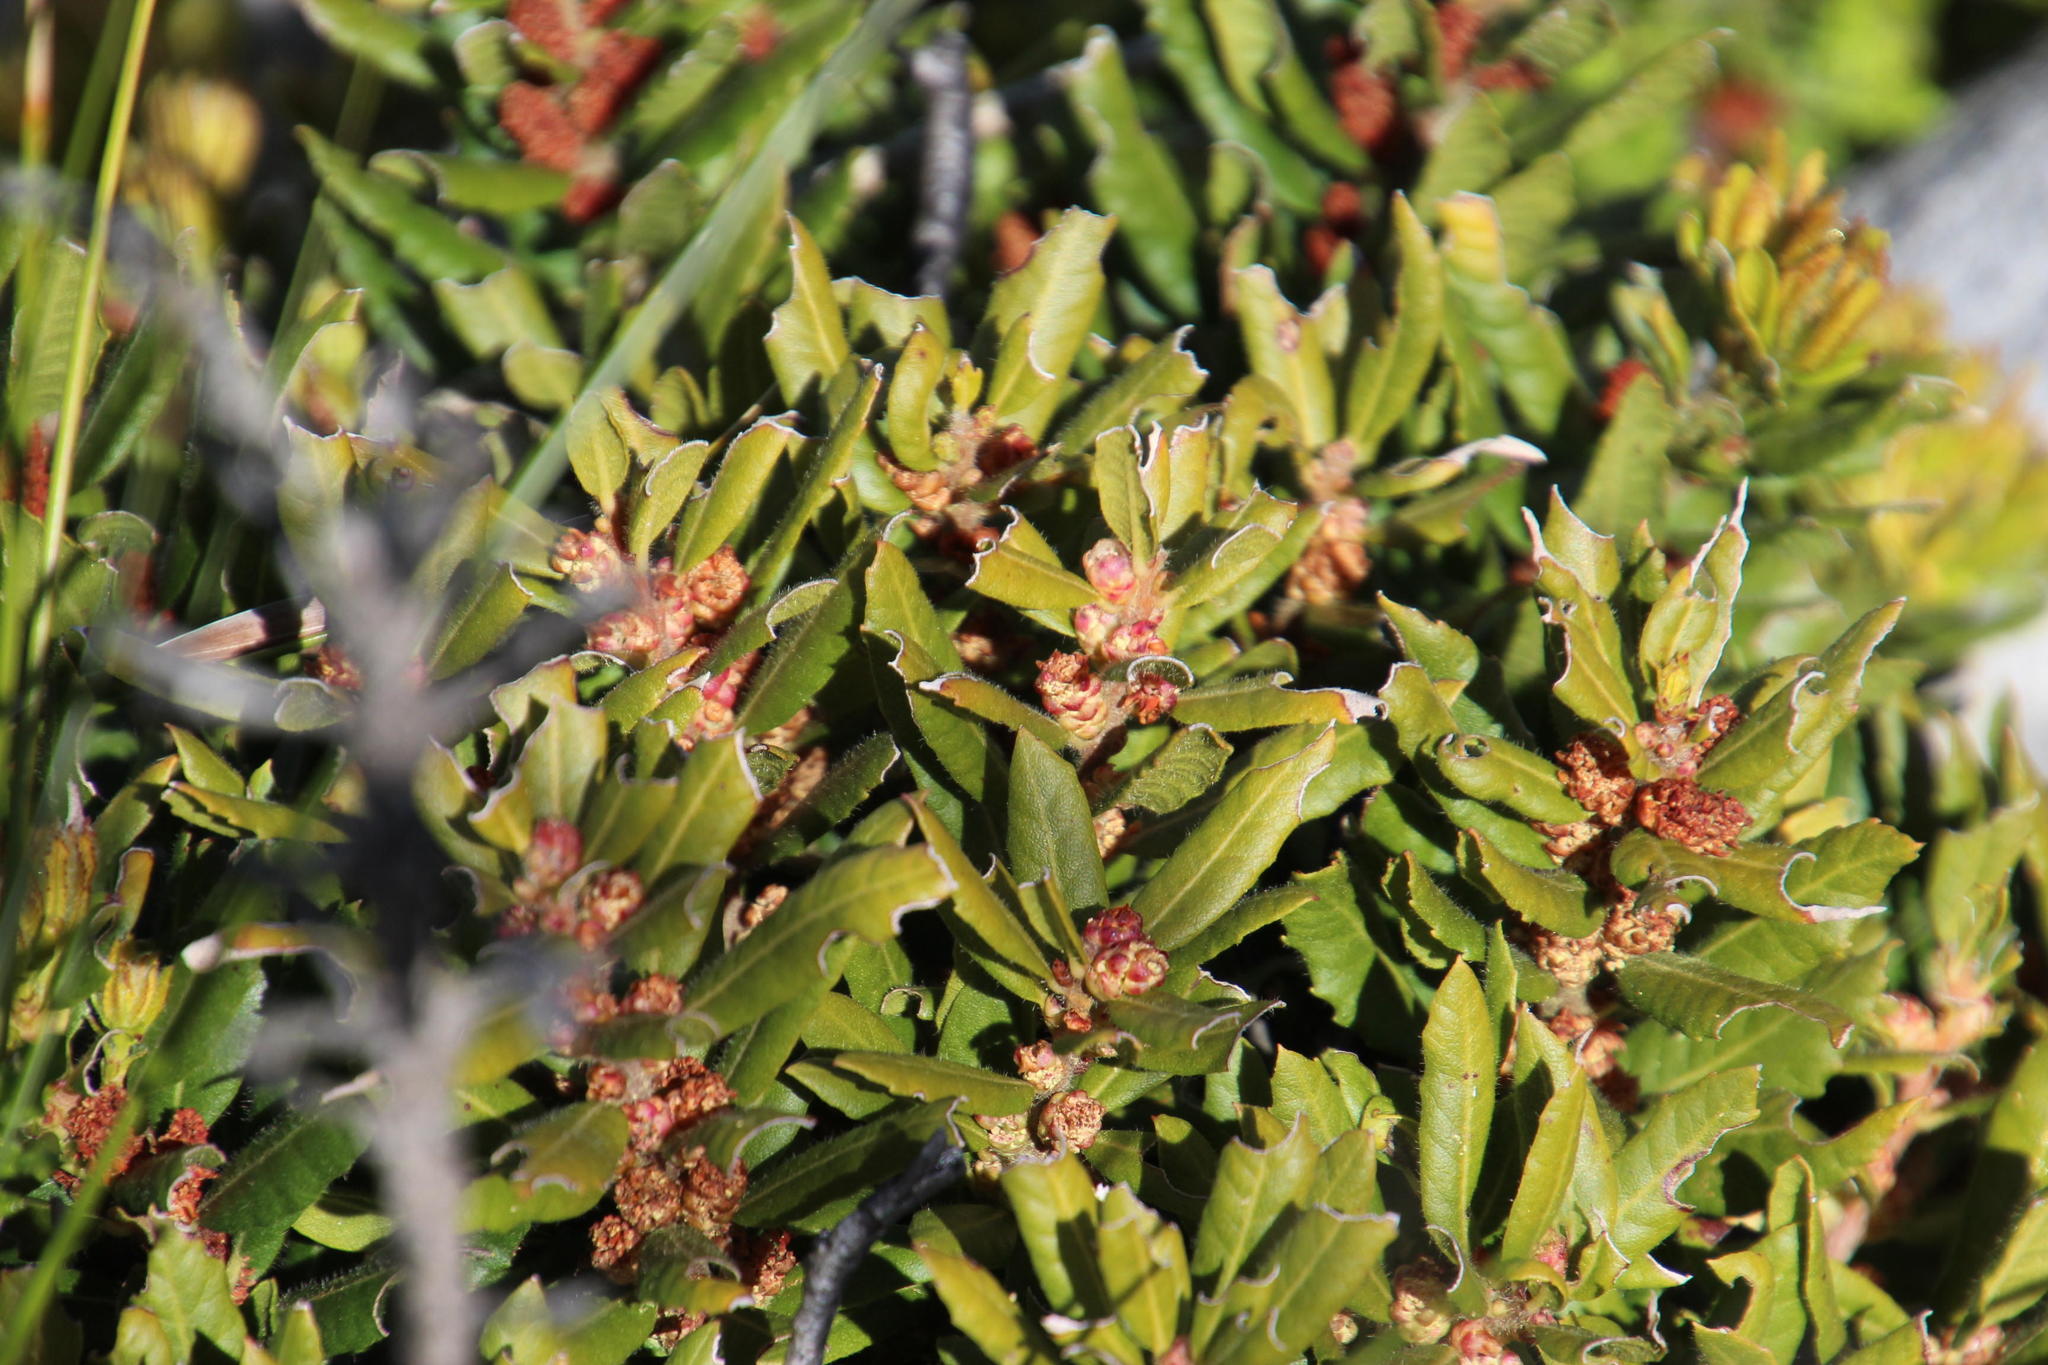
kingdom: Plantae
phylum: Tracheophyta
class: Magnoliopsida
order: Fagales
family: Myricaceae
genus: Morella
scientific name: Morella kraussiana
